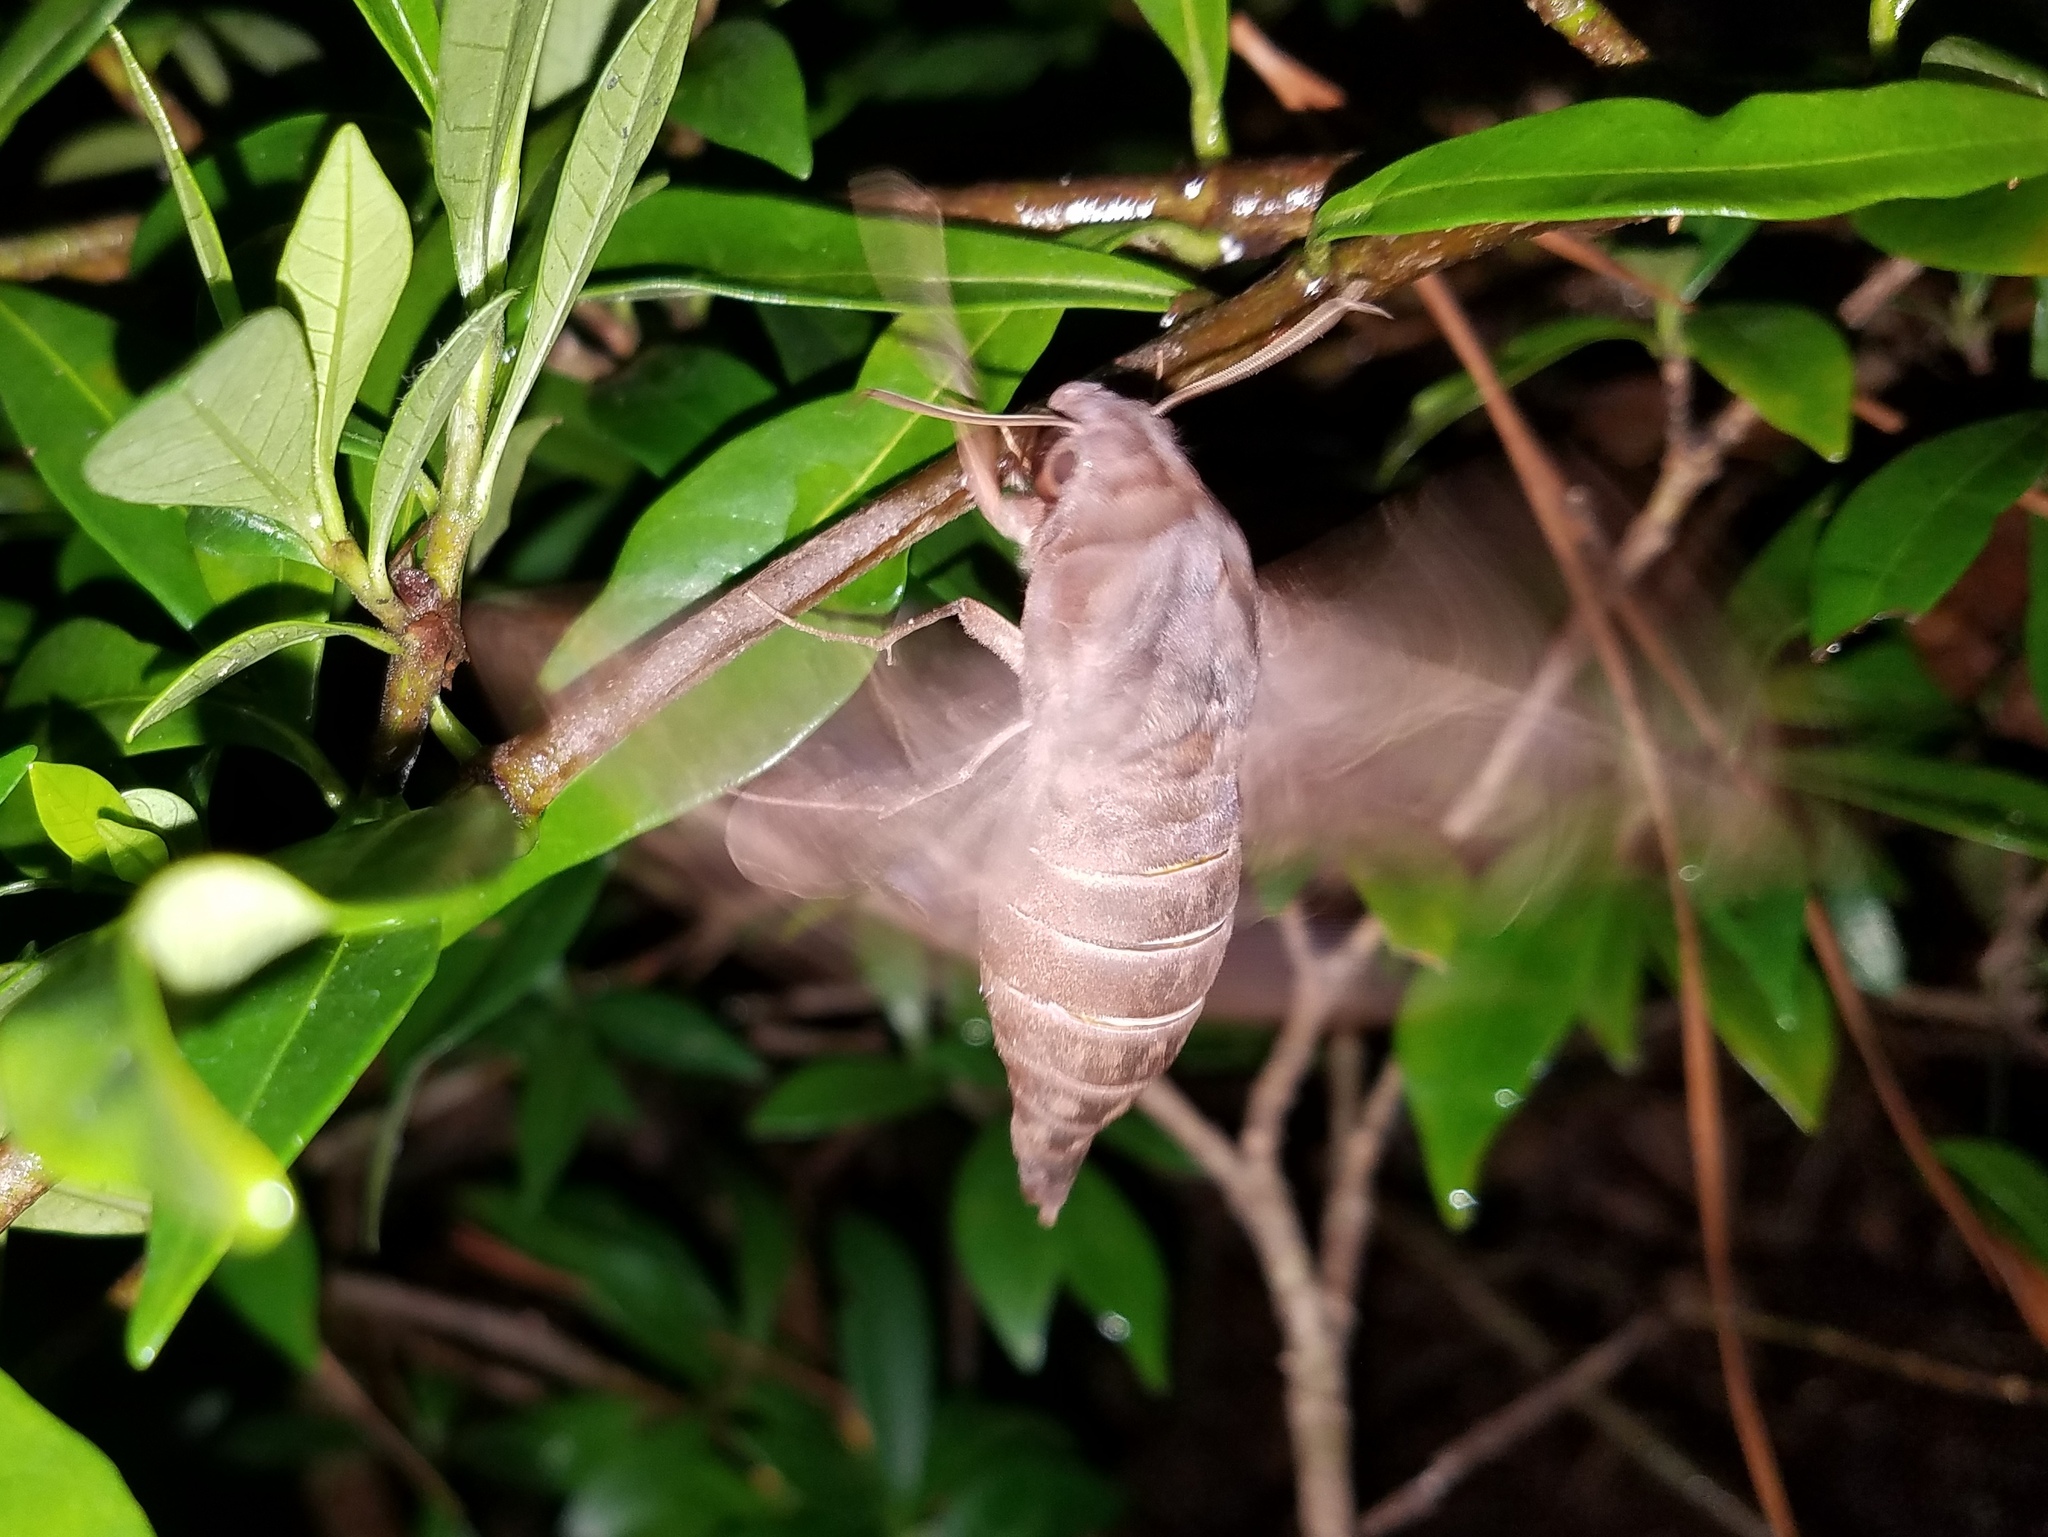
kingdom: Animalia
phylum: Arthropoda
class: Insecta
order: Lepidoptera
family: Sphingidae
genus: Enyo
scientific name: Enyo lugubris
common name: Mournful sphinx
